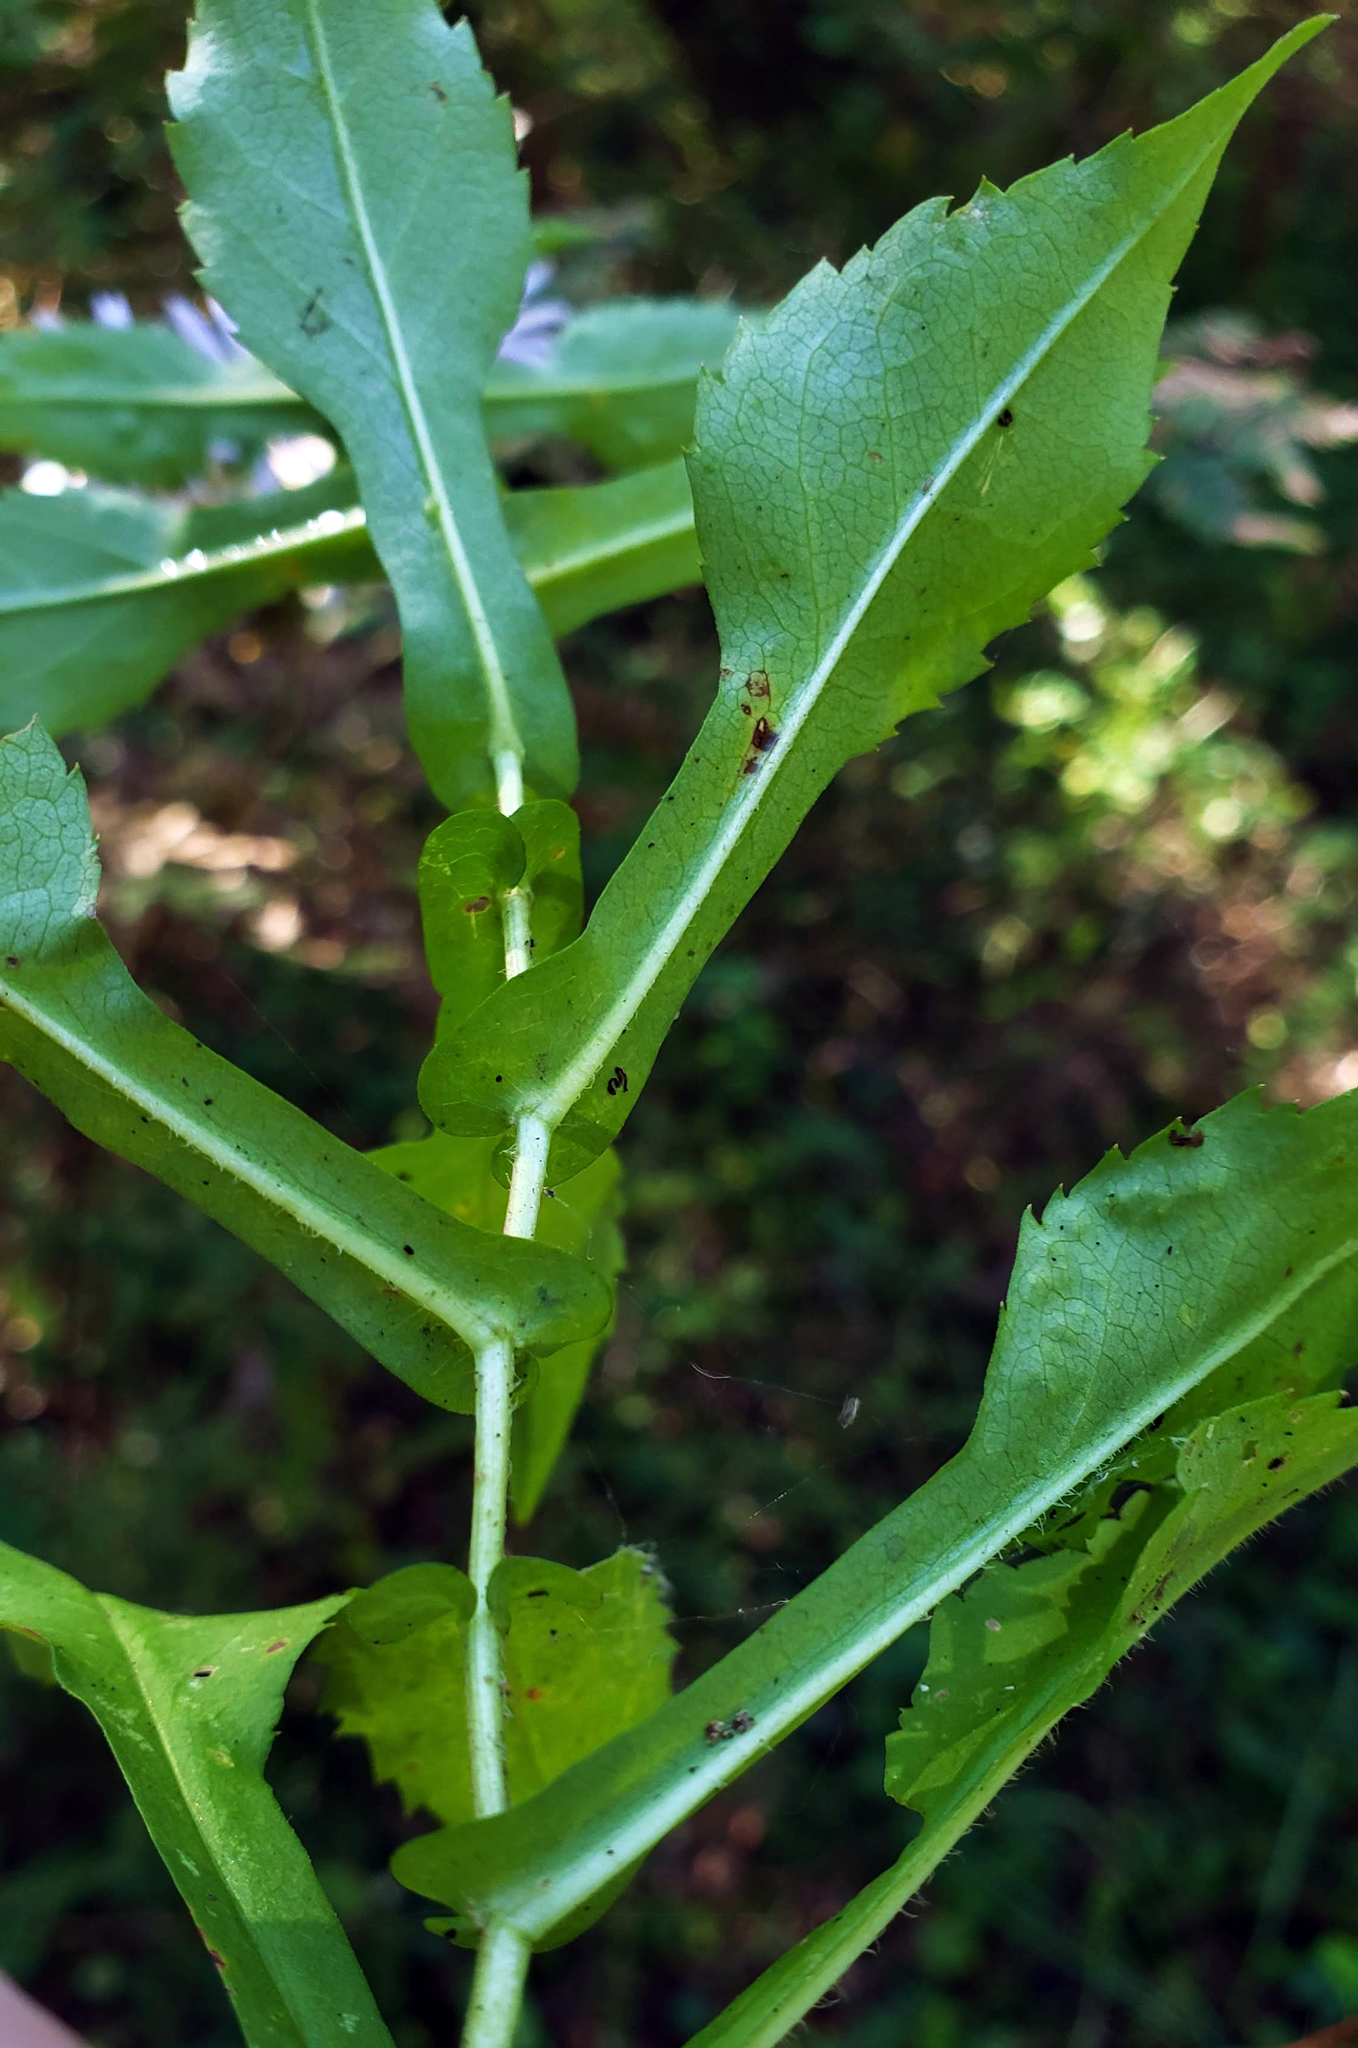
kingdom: Plantae
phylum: Tracheophyta
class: Magnoliopsida
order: Asterales
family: Asteraceae
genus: Symphyotrichum
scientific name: Symphyotrichum prenanthoides
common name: Crooked-stem aster
